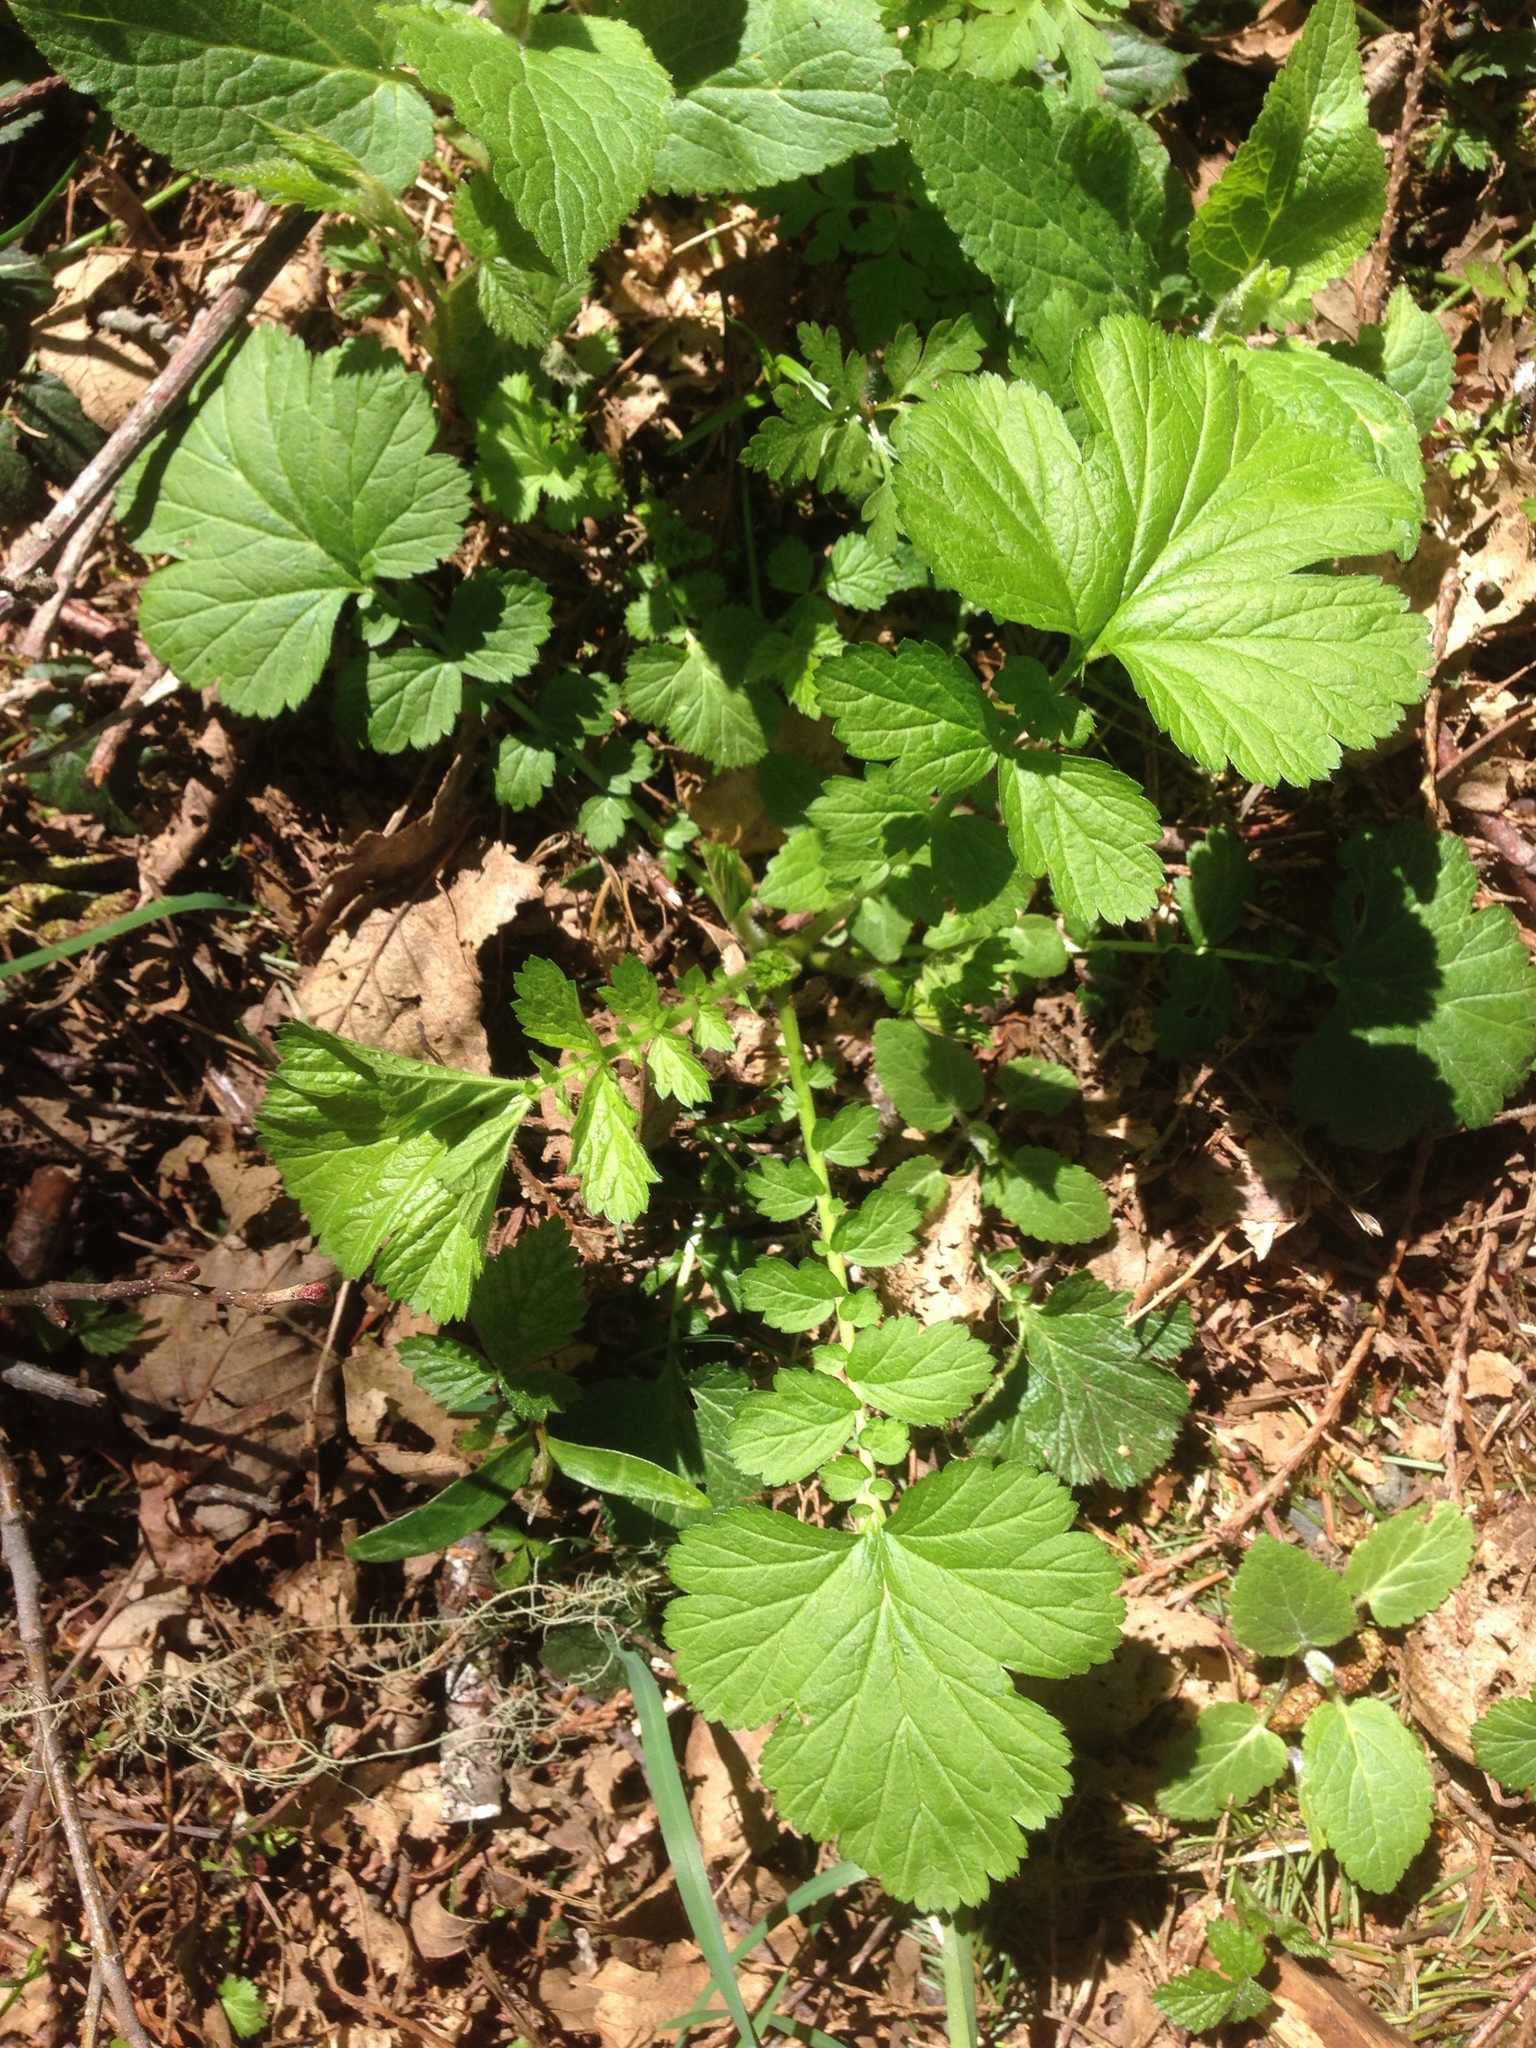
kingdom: Plantae
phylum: Tracheophyta
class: Magnoliopsida
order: Rosales
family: Rosaceae
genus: Geum
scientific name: Geum macrophyllum
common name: Large-leaved avens
